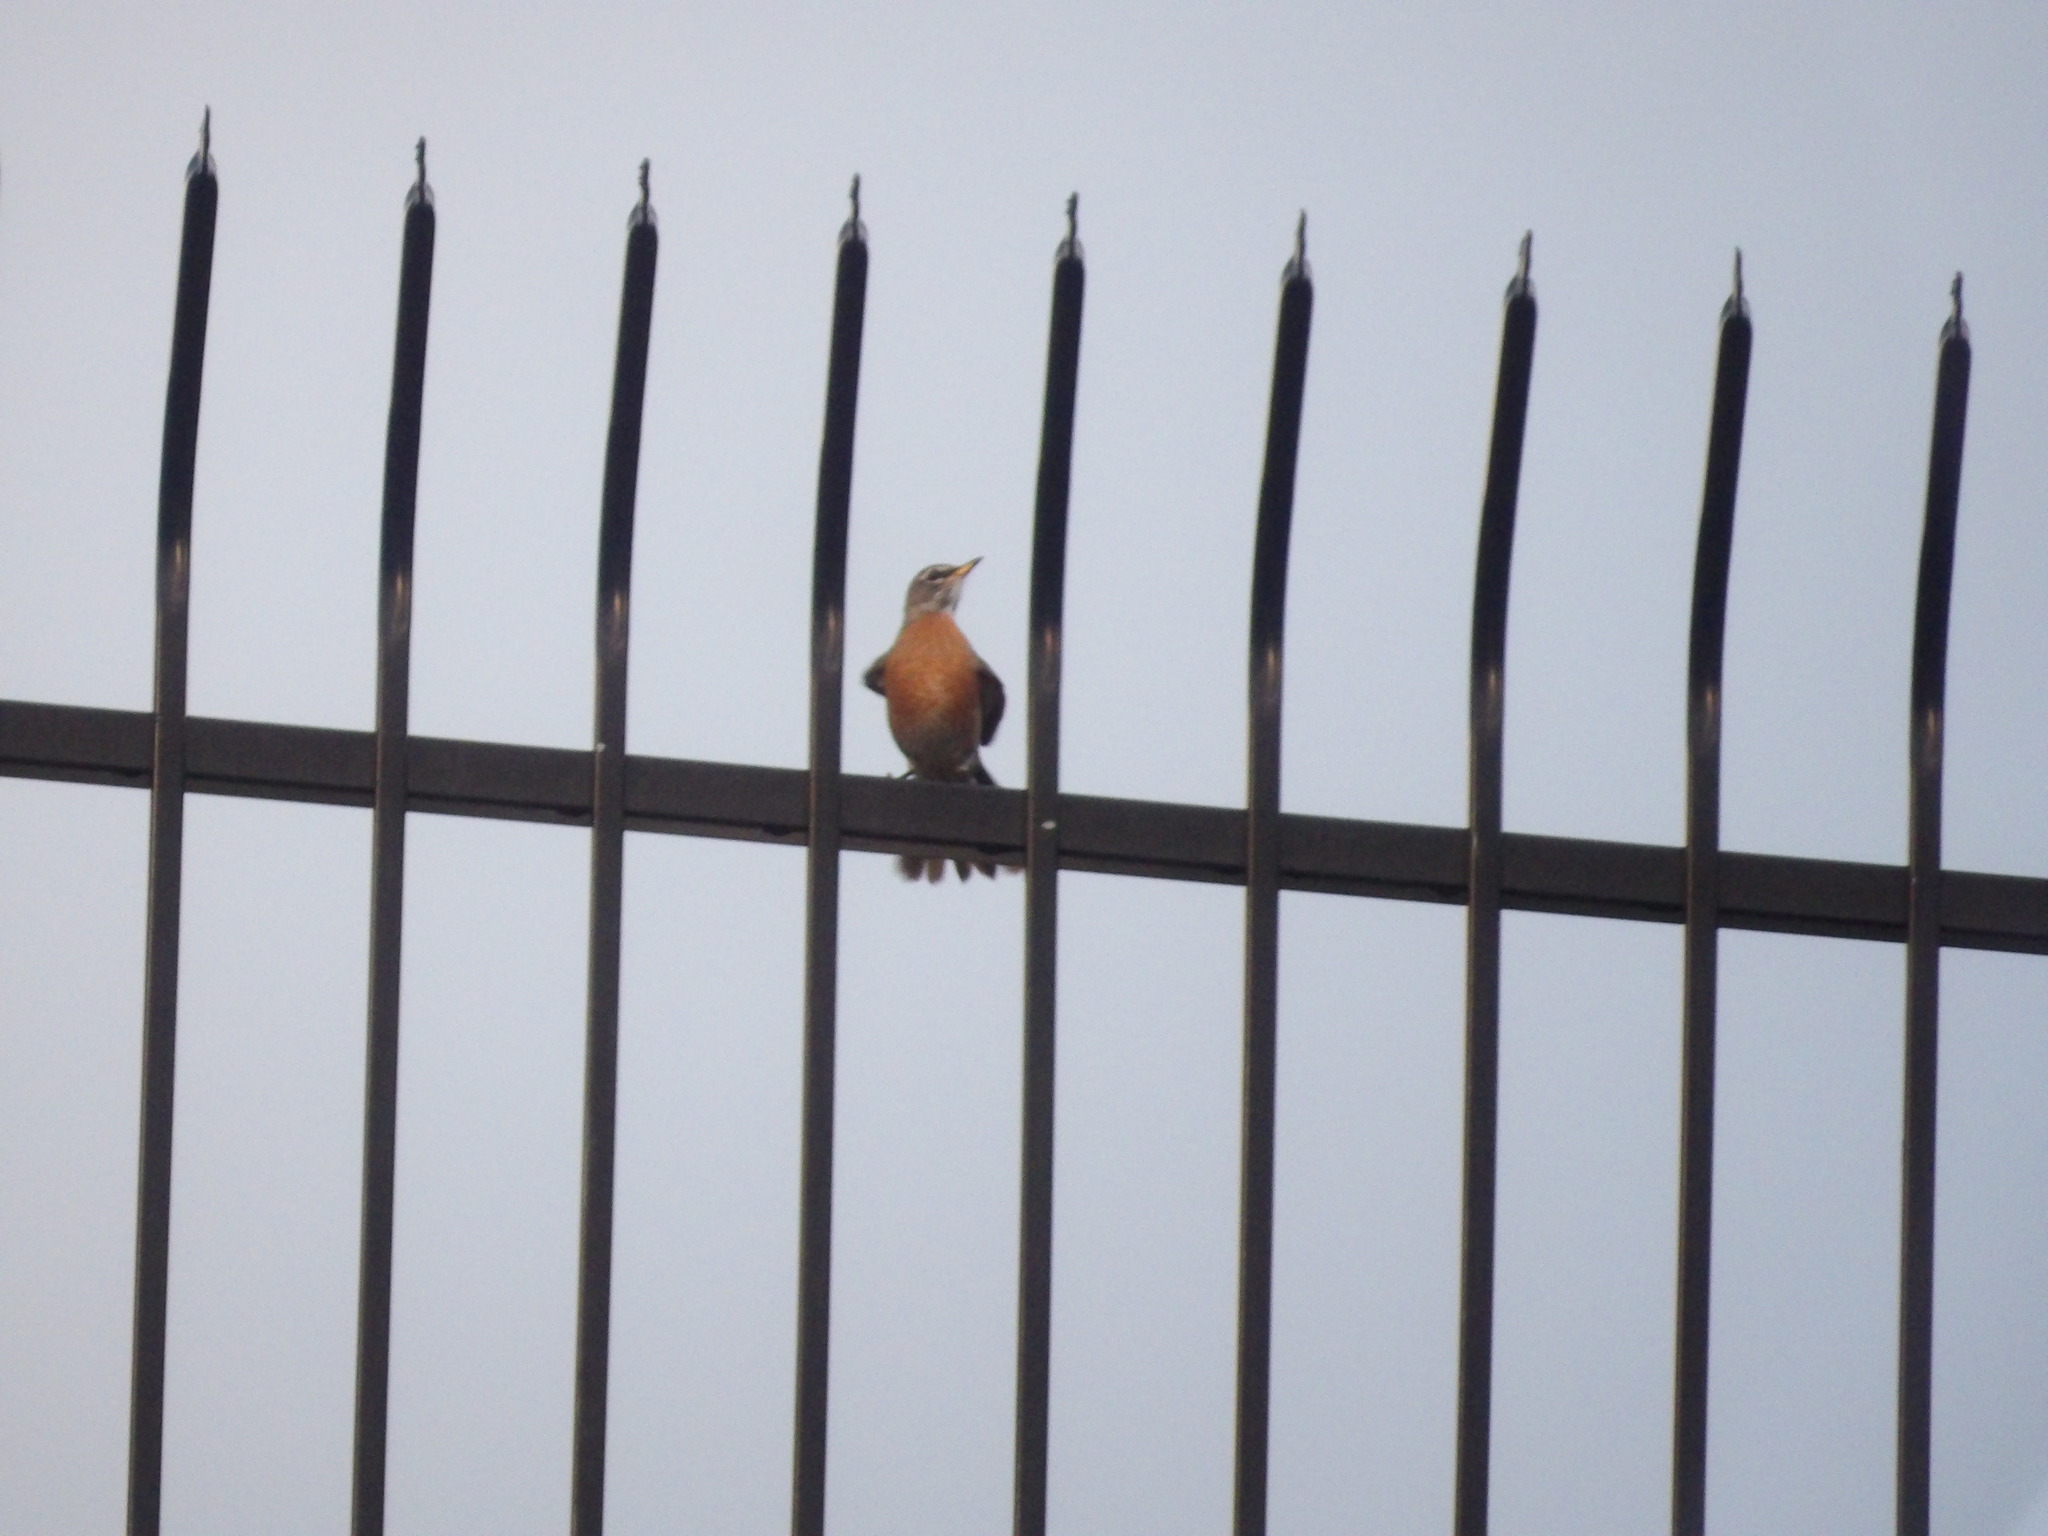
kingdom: Animalia
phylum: Chordata
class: Aves
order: Passeriformes
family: Turdidae
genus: Turdus
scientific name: Turdus migratorius
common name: American robin
